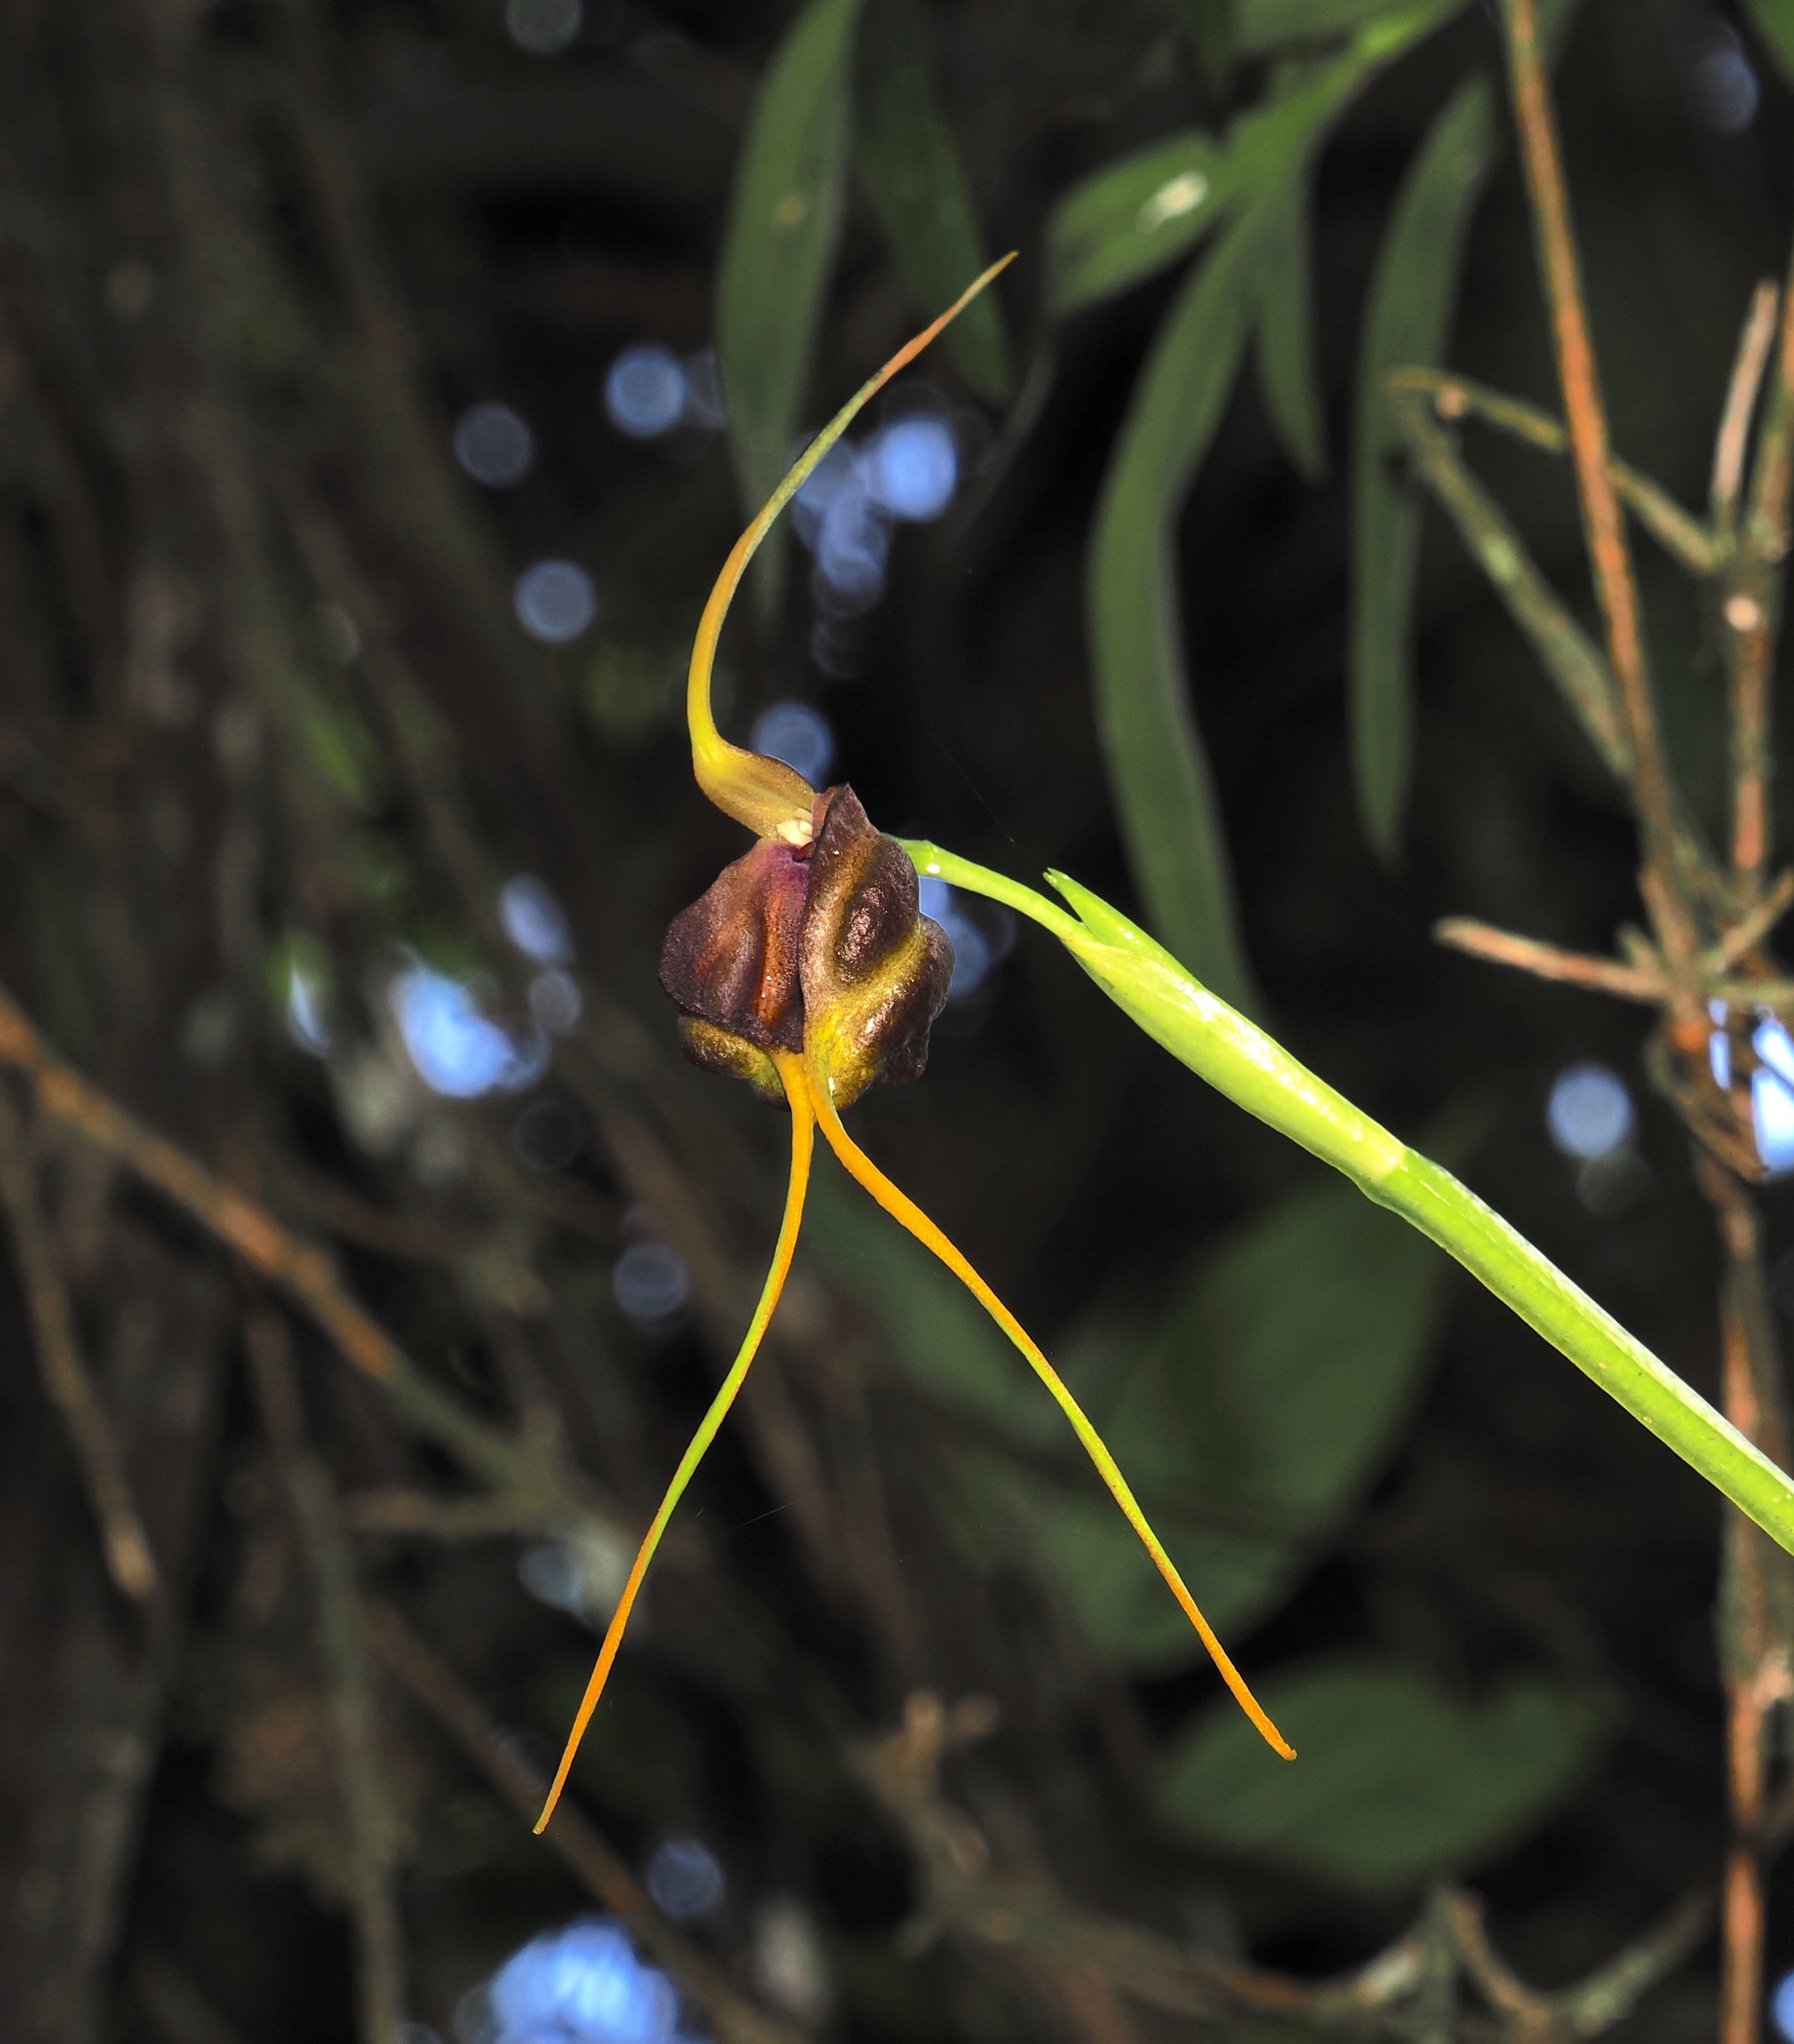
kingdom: Plantae
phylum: Tracheophyta
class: Liliopsida
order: Asparagales
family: Orchidaceae
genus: Masdevallia
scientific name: Masdevallia trochilus
